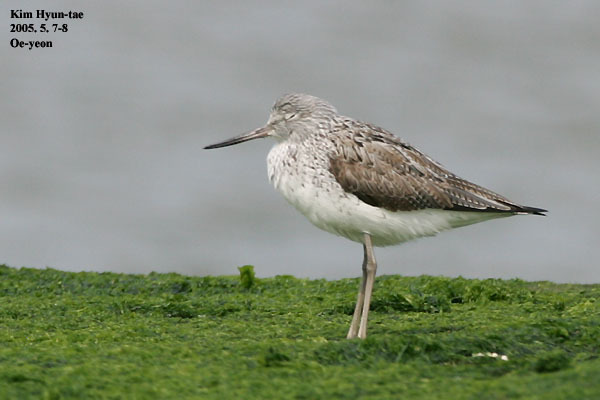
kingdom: Animalia
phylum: Chordata
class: Aves
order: Charadriiformes
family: Scolopacidae
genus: Tringa
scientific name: Tringa nebularia
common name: Common greenshank
